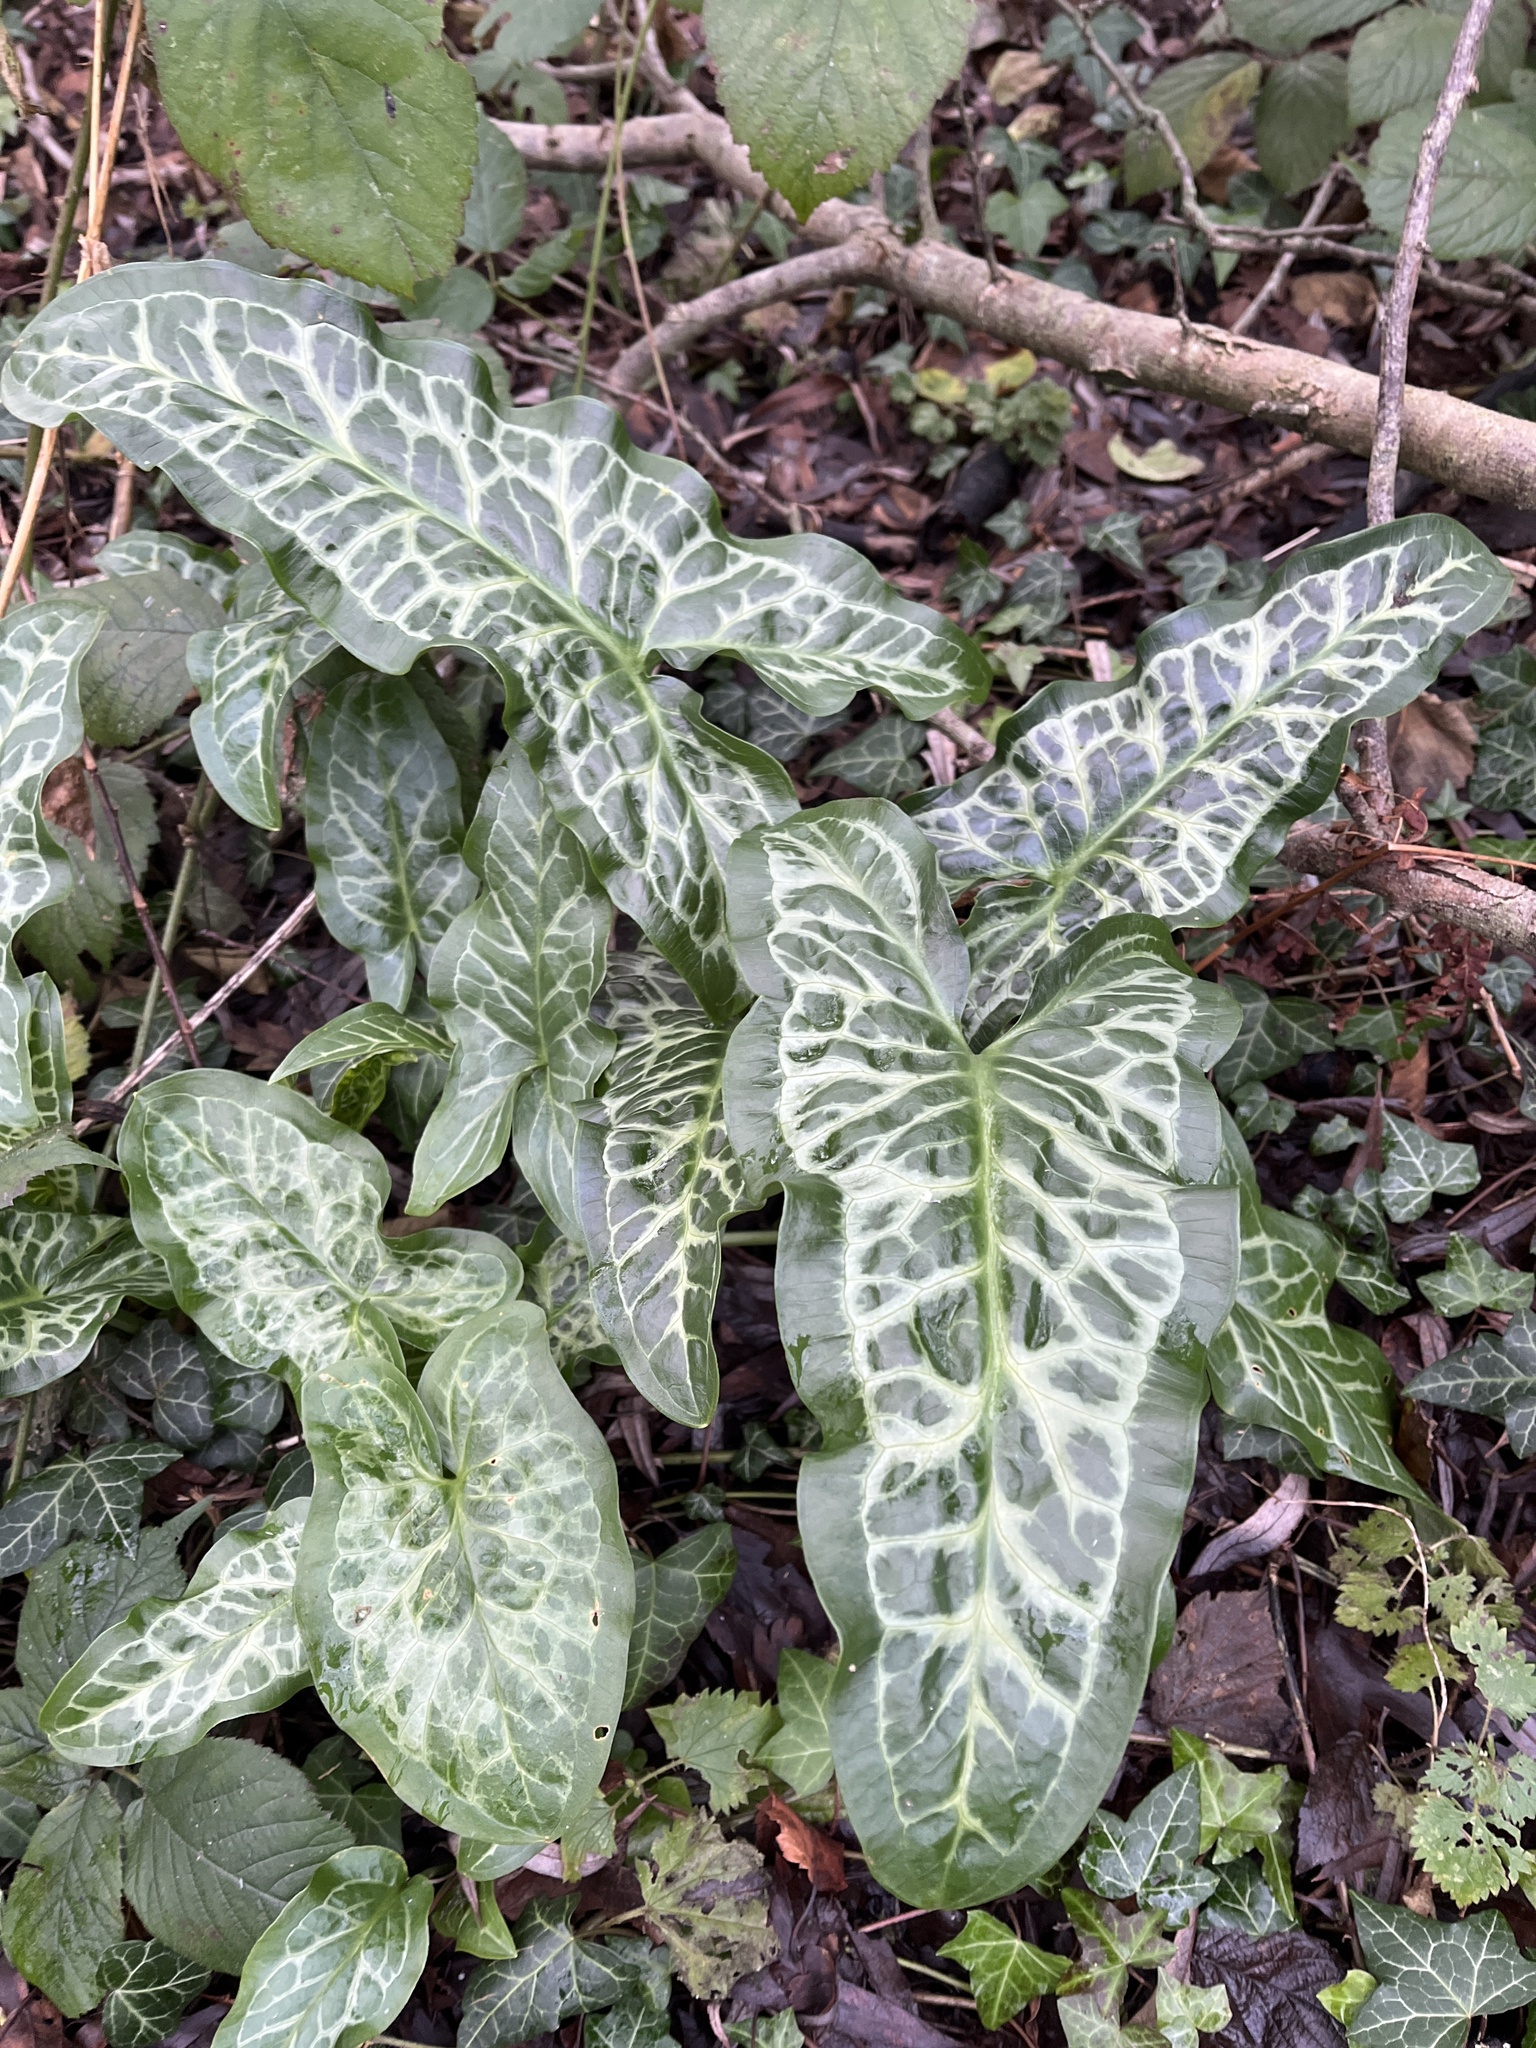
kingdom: Plantae
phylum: Tracheophyta
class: Liliopsida
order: Alismatales
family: Araceae
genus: Arum
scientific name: Arum italicum
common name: Italian lords-and-ladies
